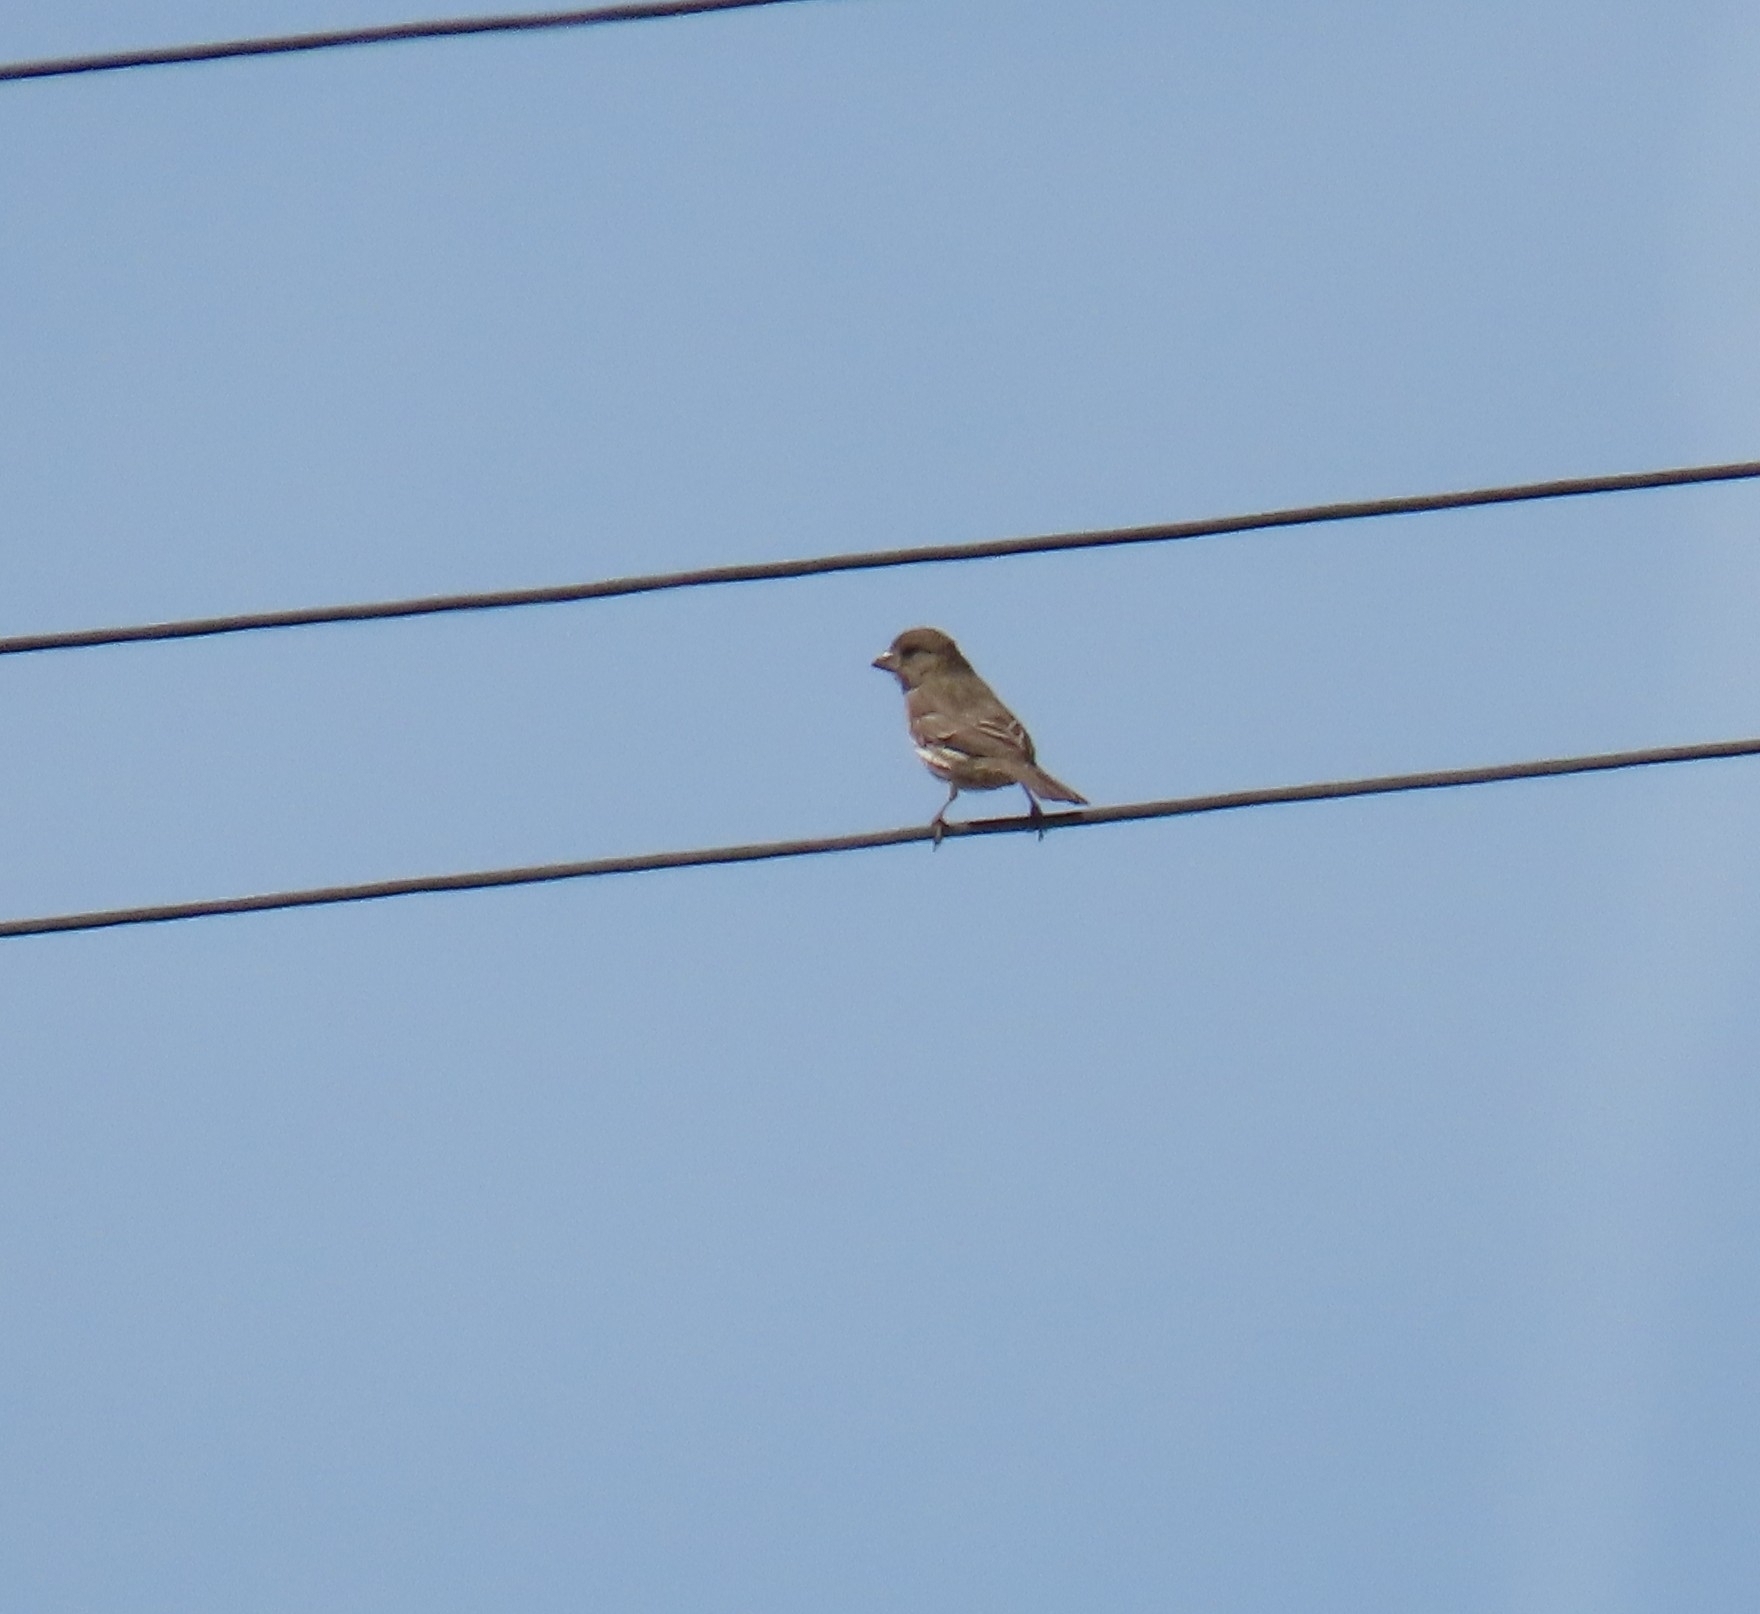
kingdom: Animalia
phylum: Chordata
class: Aves
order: Passeriformes
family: Fringillidae
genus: Haemorhous
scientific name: Haemorhous mexicanus
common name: House finch
